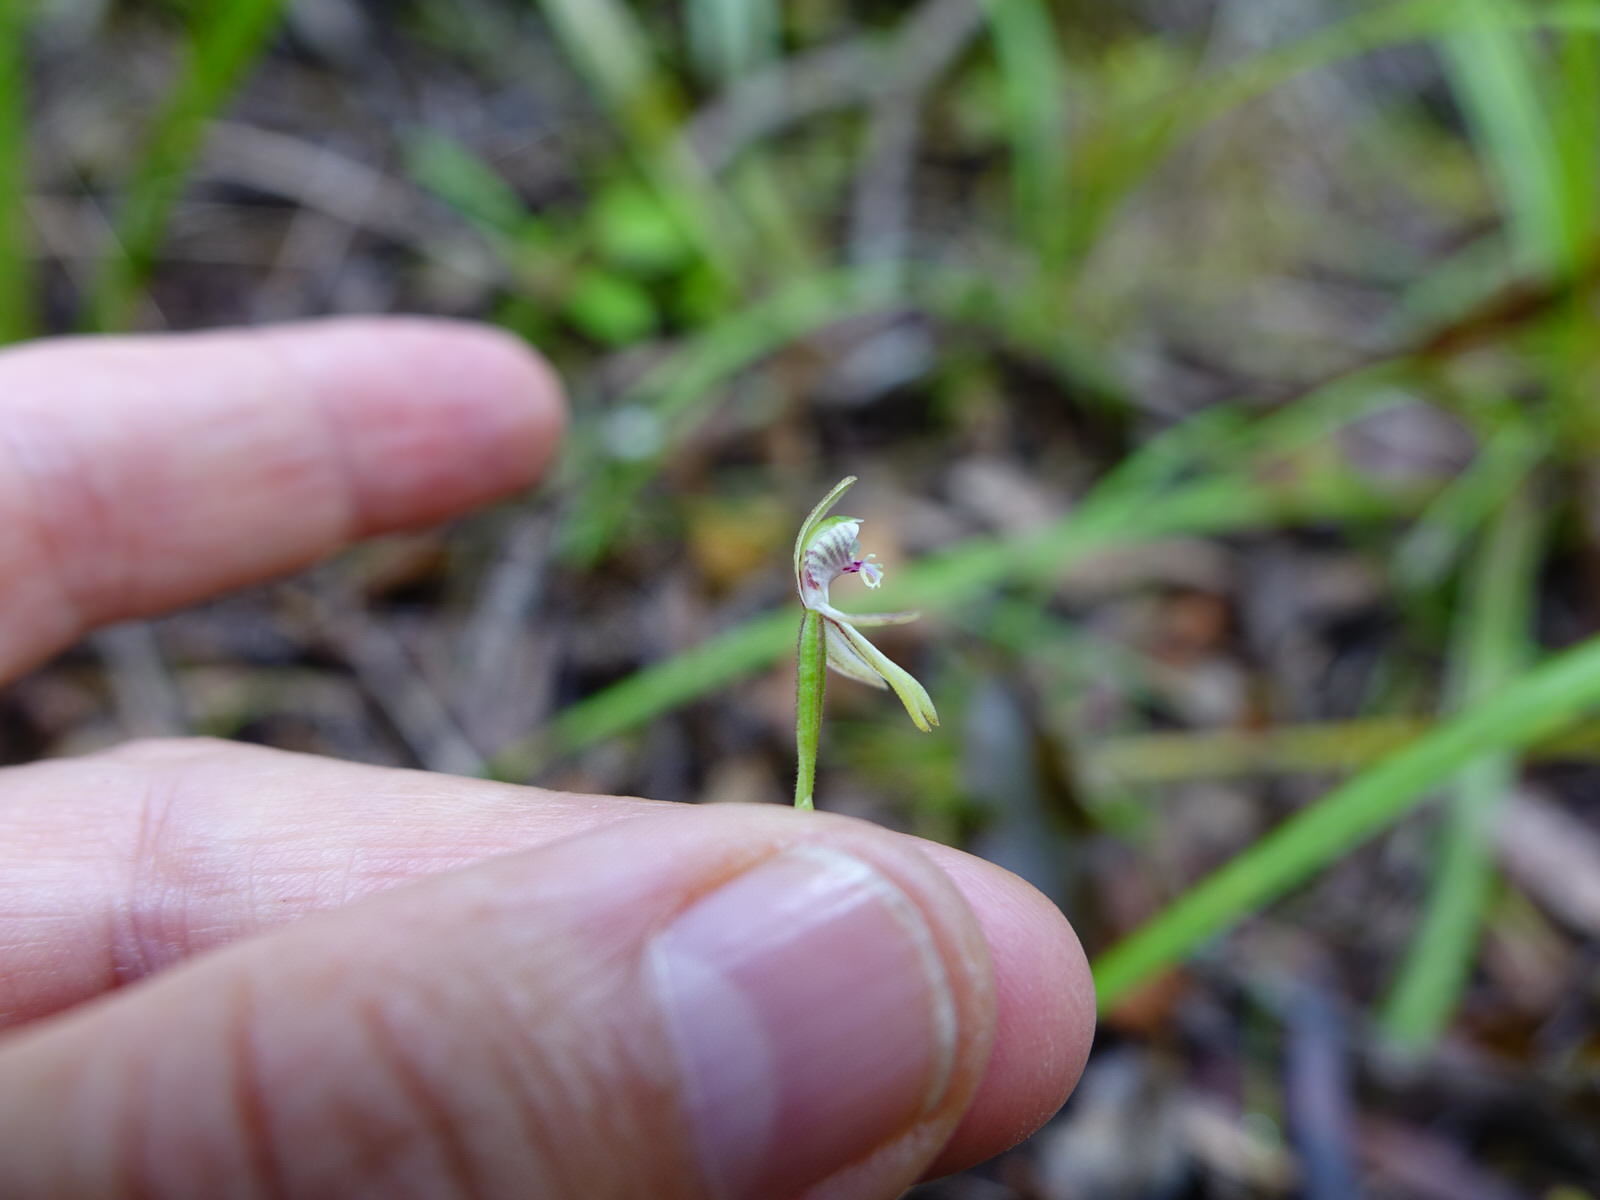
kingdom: Plantae
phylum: Tracheophyta
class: Liliopsida
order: Asparagales
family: Orchidaceae
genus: Caladenia
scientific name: Caladenia chlorostyla
